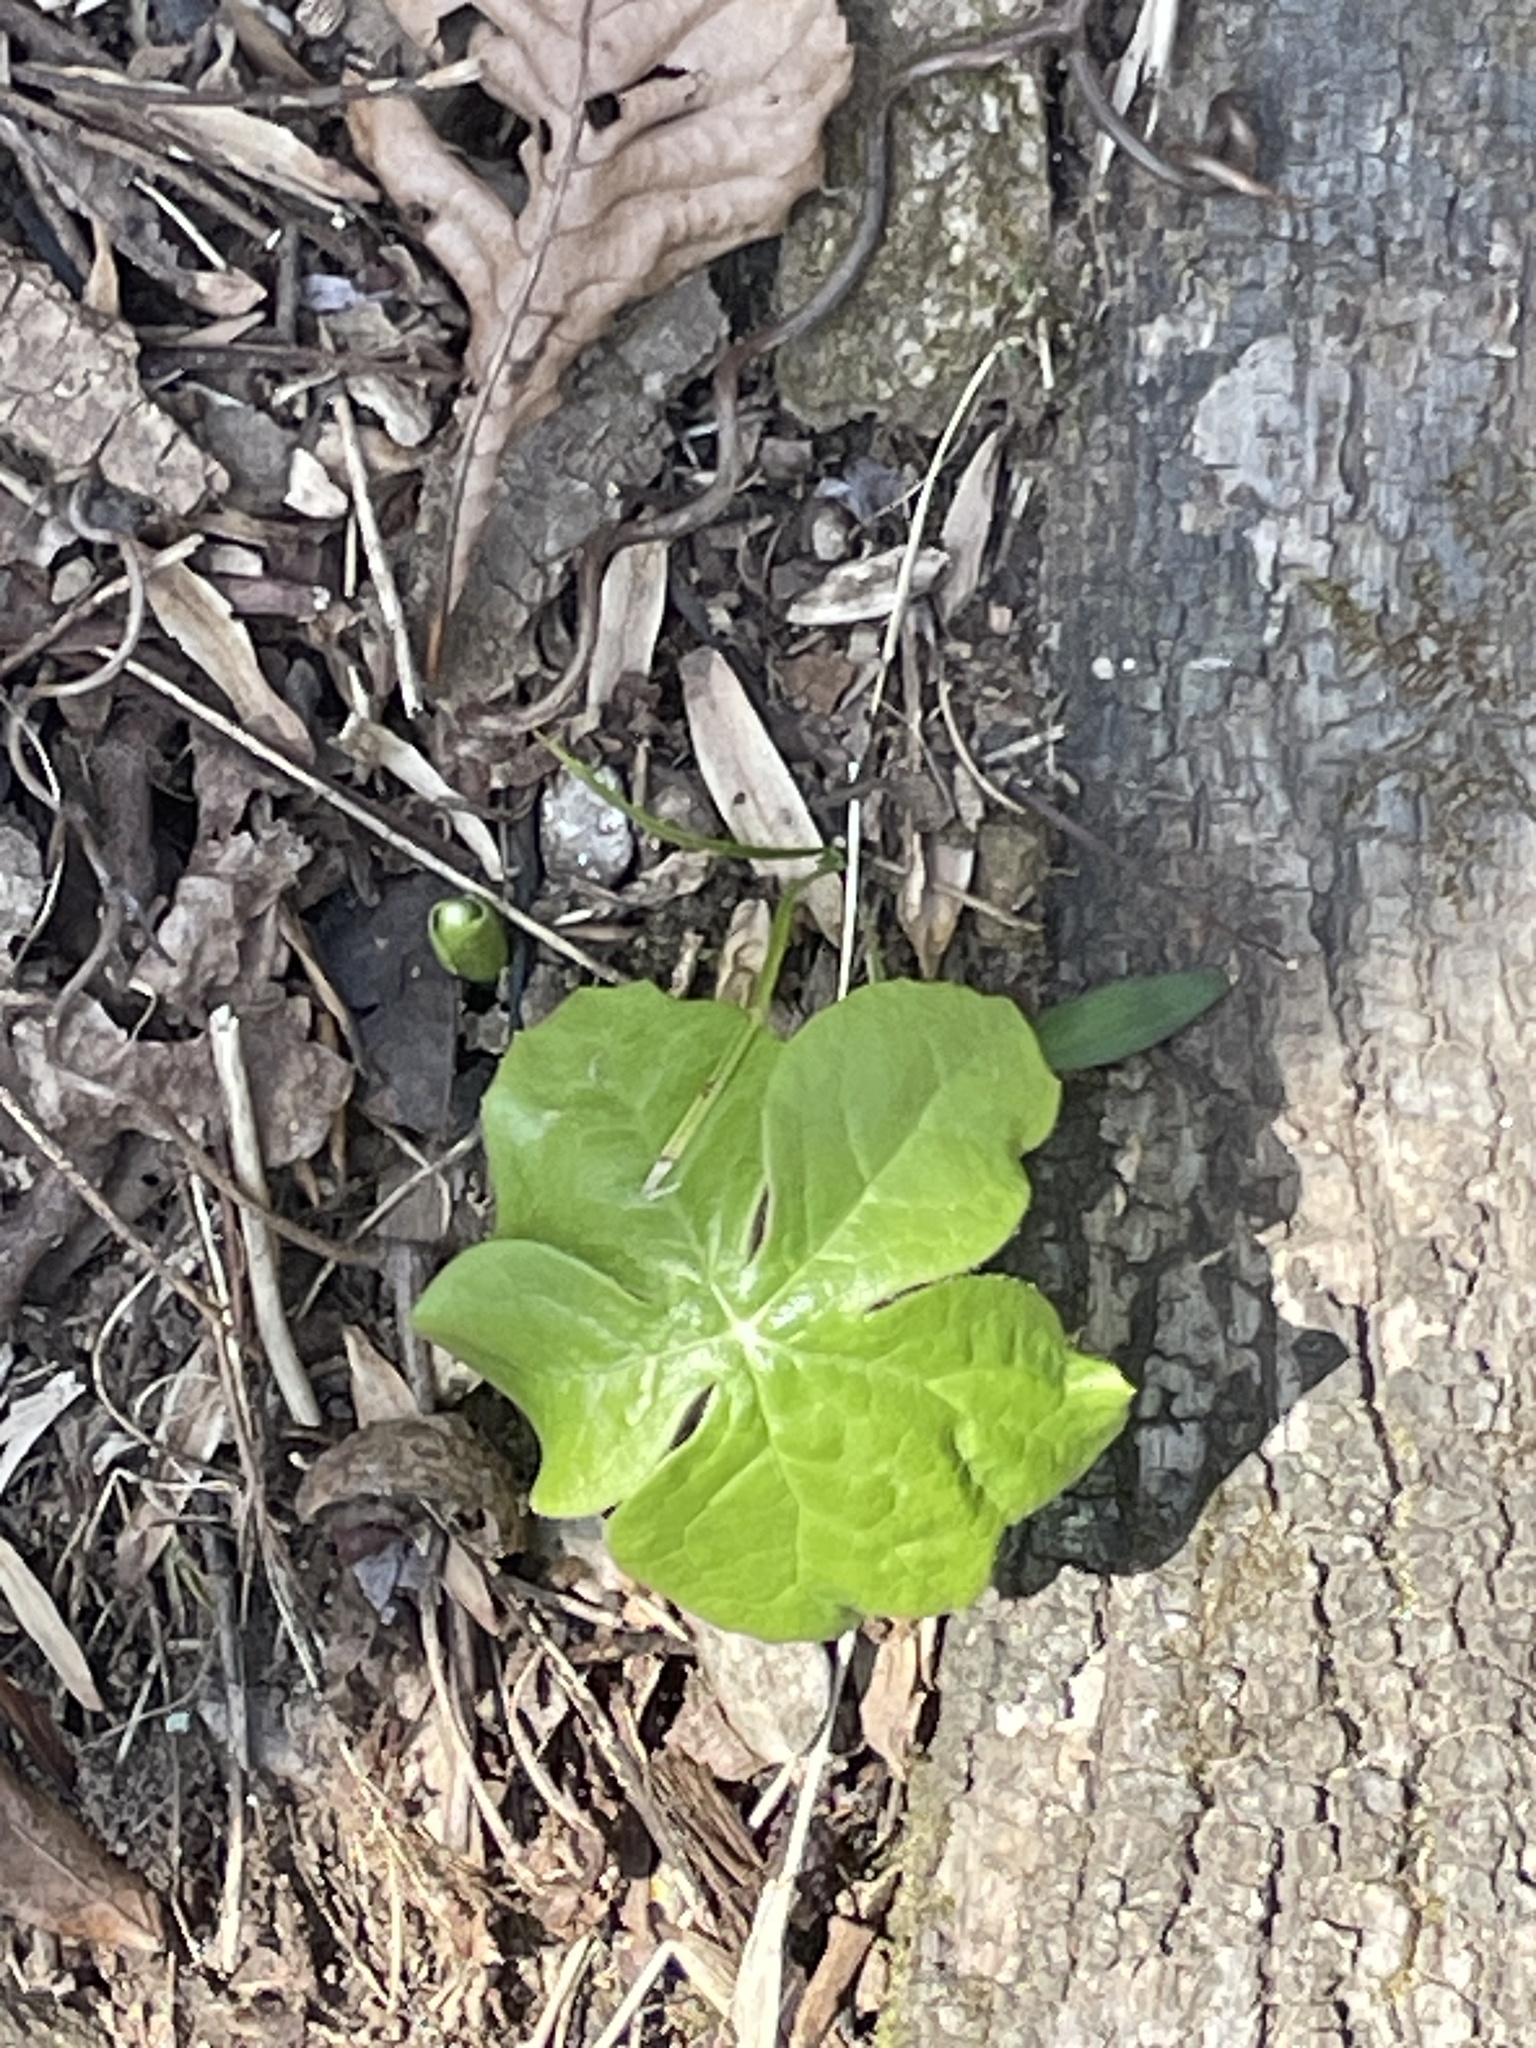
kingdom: Plantae
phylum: Tracheophyta
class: Magnoliopsida
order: Ranunculales
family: Berberidaceae
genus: Podophyllum
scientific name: Podophyllum peltatum
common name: Wild mandrake
